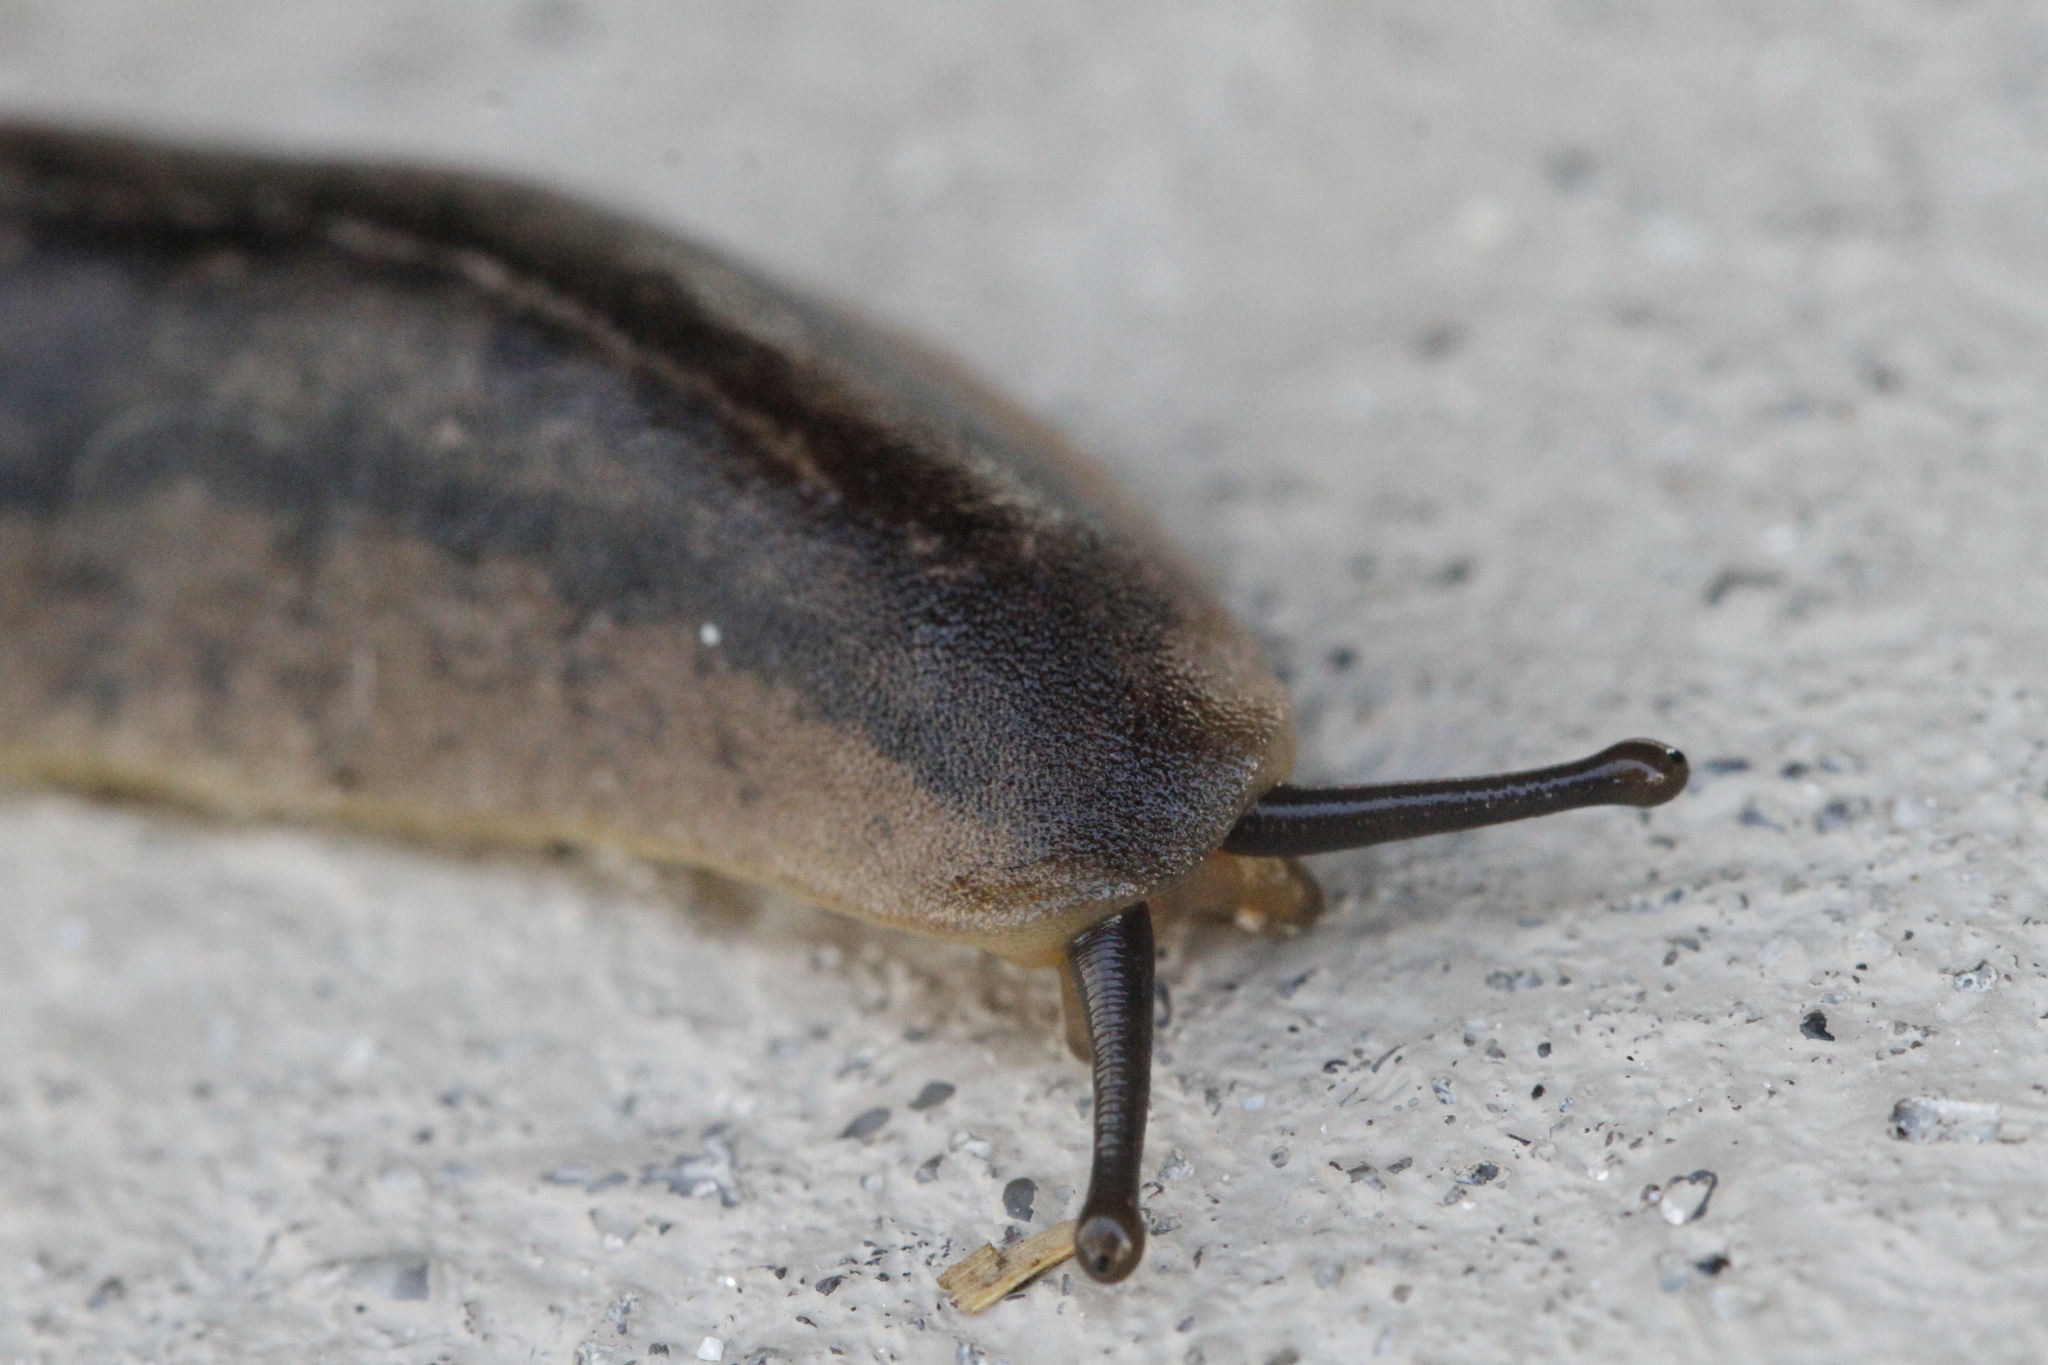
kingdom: Animalia
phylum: Mollusca
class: Gastropoda
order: Systellommatophora
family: Veronicellidae
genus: Leidyula
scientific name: Leidyula floridana
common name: Florida leatherleaf
